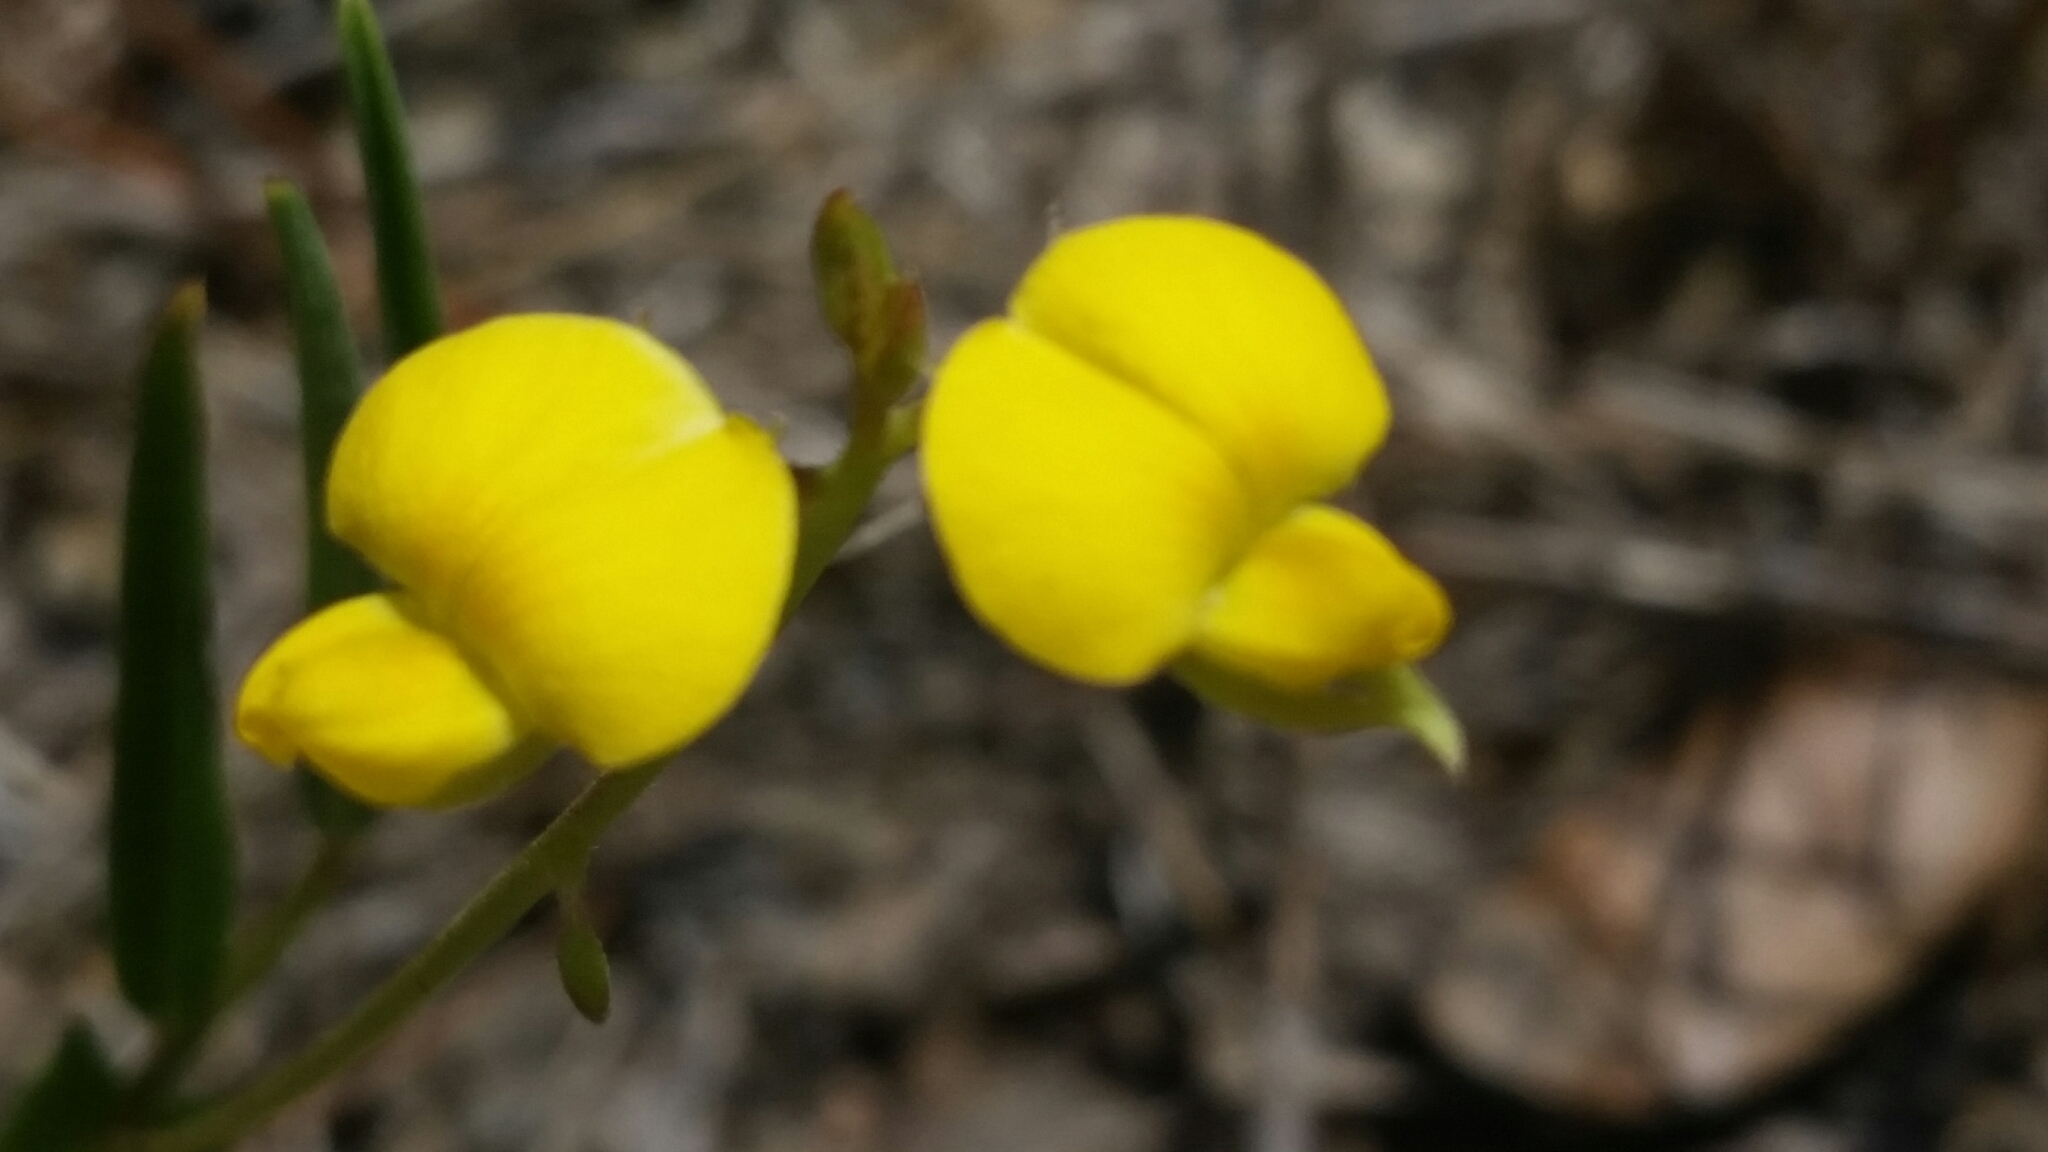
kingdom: Plantae
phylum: Tracheophyta
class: Magnoliopsida
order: Fabales
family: Fabaceae
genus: Crotalaria
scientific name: Crotalaria rotundifolia
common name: Prostrate rattlebox
